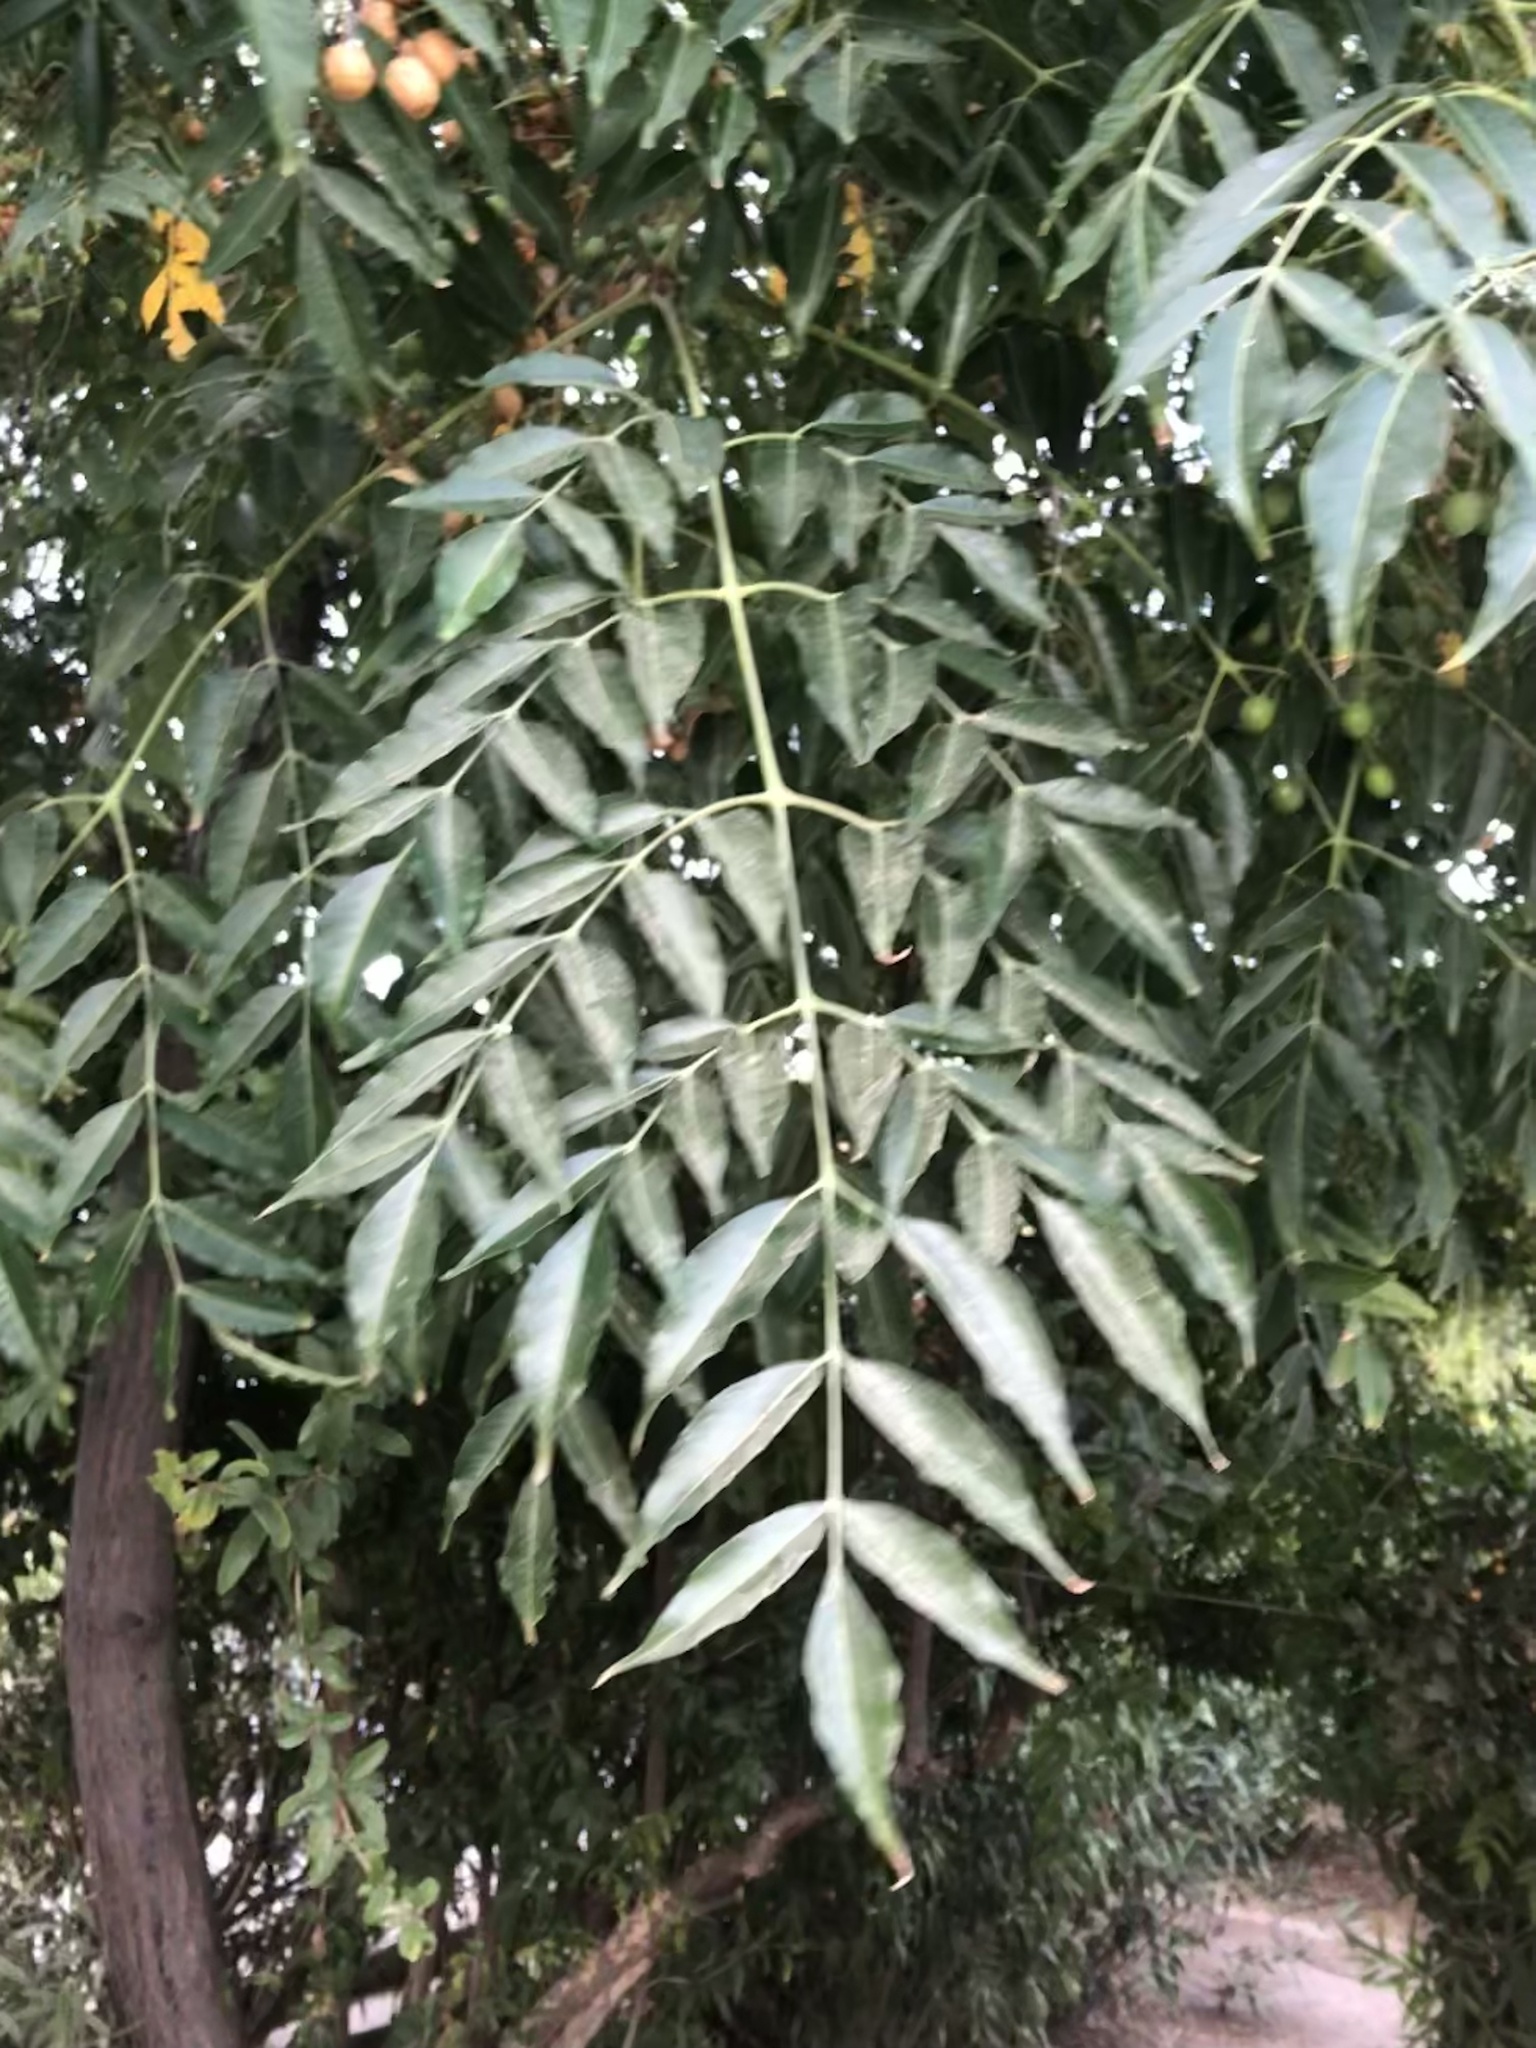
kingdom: Plantae
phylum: Tracheophyta
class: Magnoliopsida
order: Sapindales
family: Meliaceae
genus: Melia
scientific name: Melia azedarach
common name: Chinaberrytree
